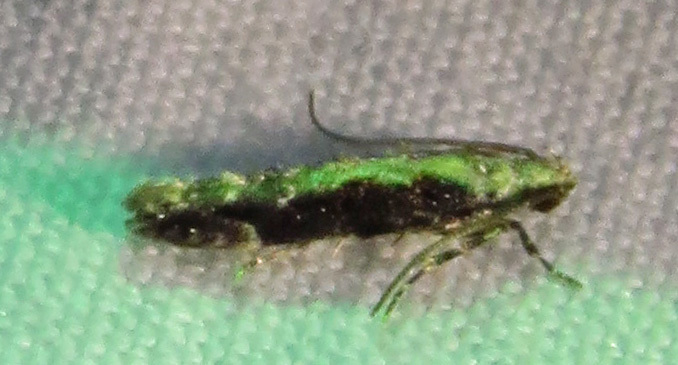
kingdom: Animalia
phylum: Arthropoda
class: Insecta
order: Lepidoptera
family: Gelechiidae
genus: Coleotechnites
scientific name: Coleotechnites florae
